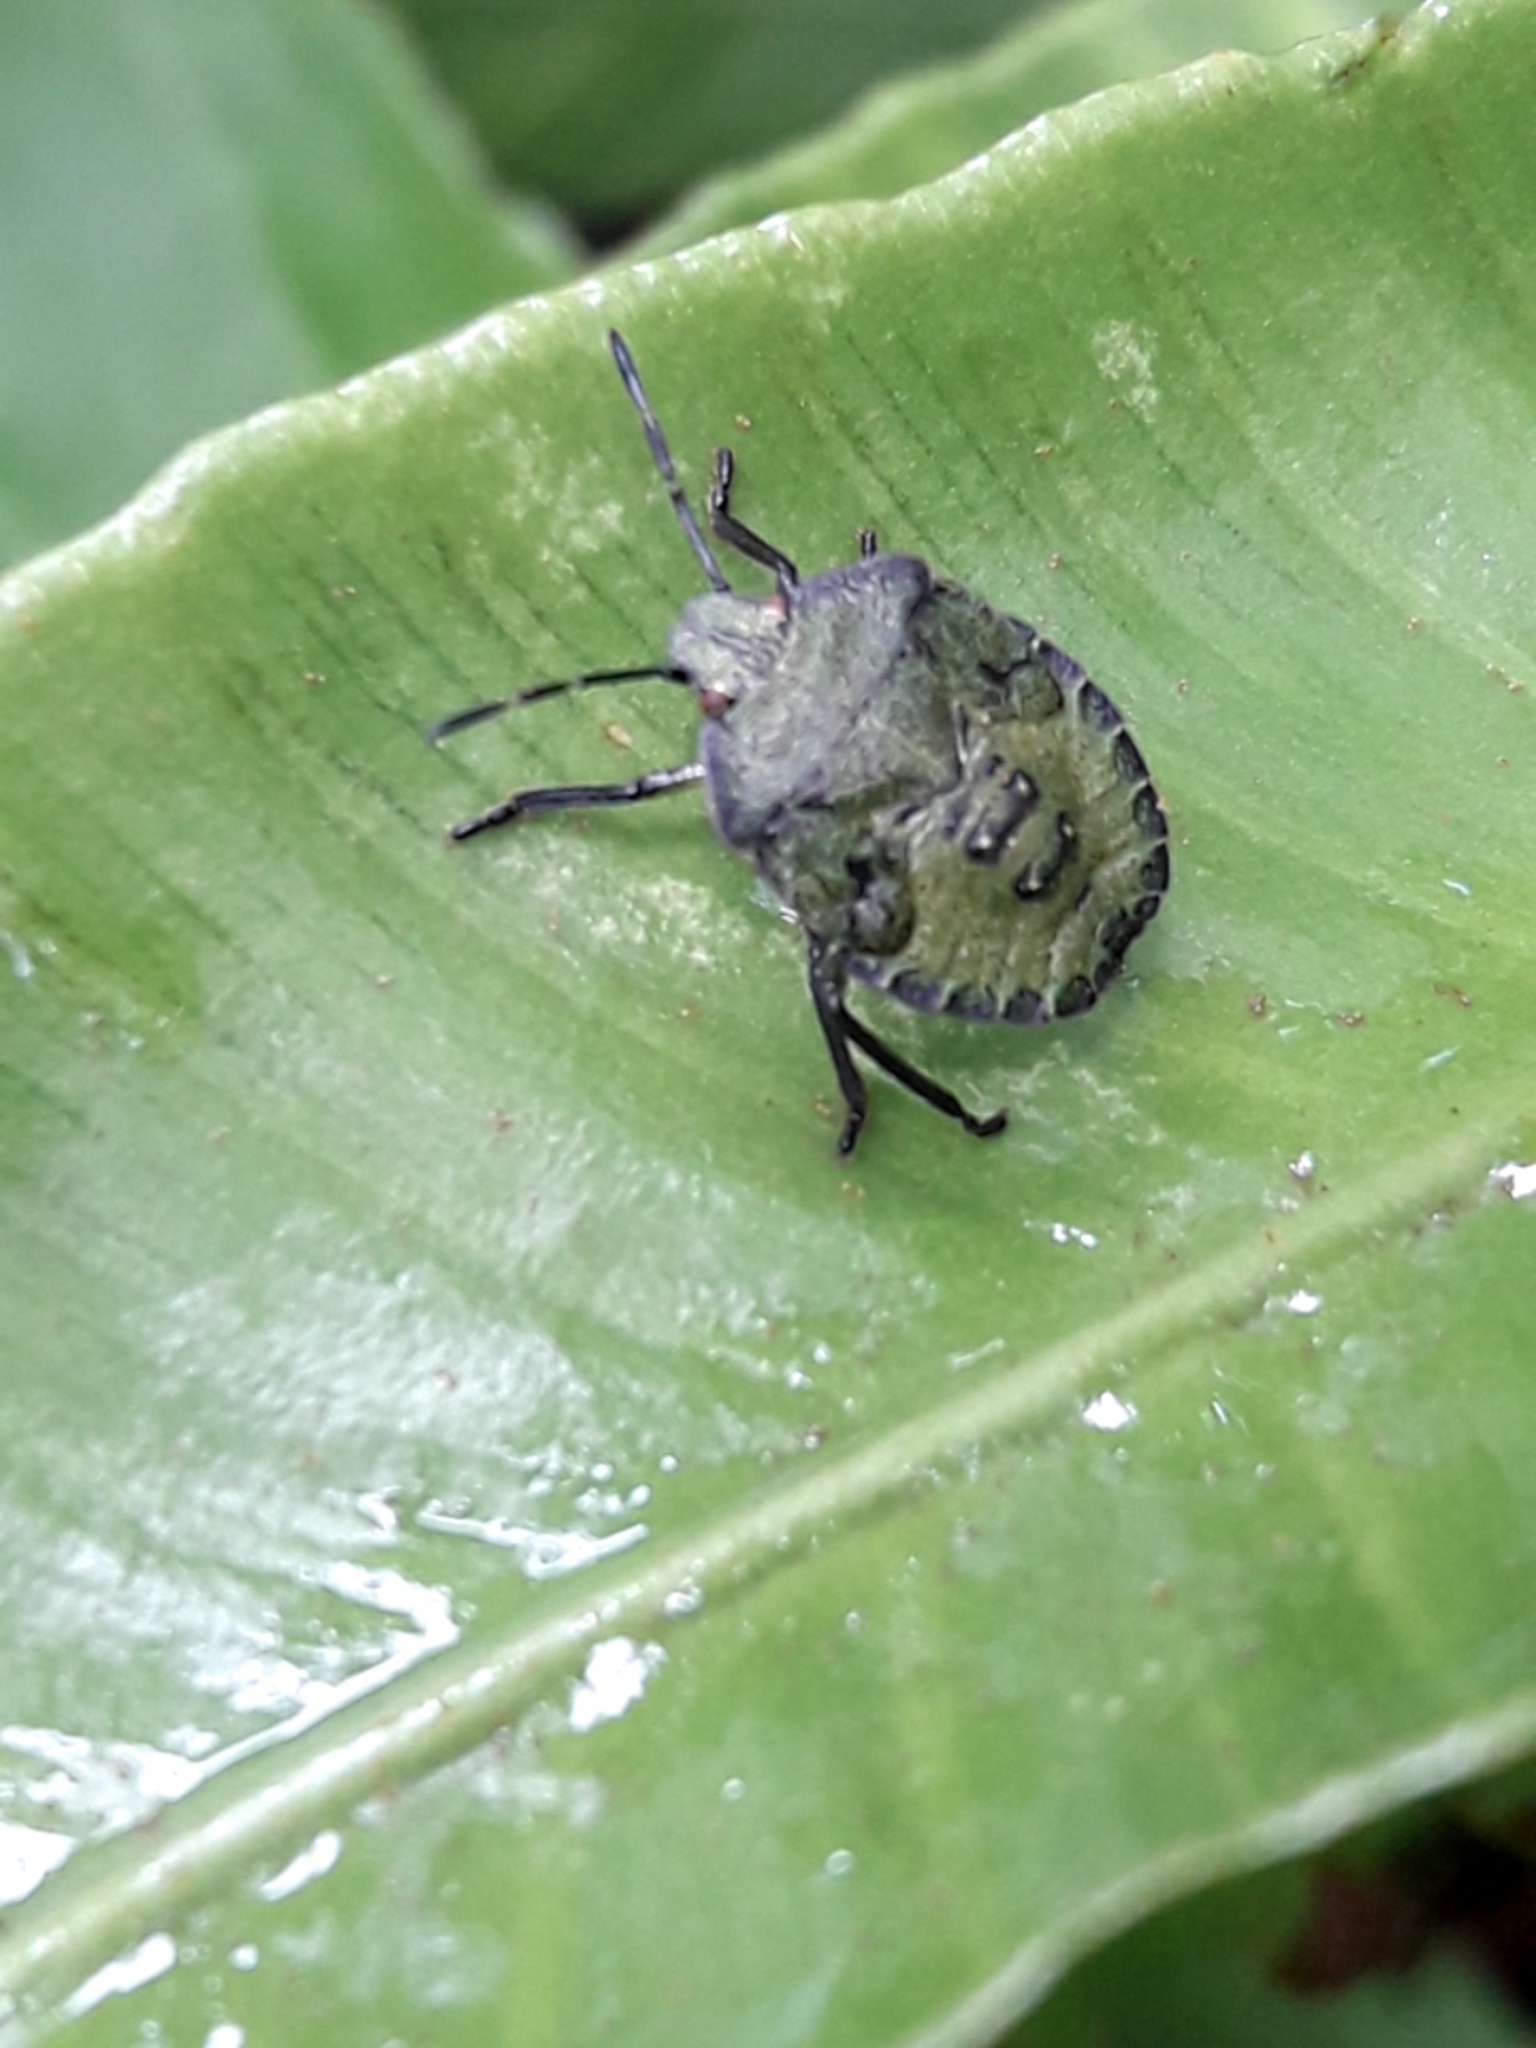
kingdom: Animalia
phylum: Arthropoda
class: Insecta
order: Hemiptera
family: Pentatomidae
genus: Palomena
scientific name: Palomena prasina
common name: Green shieldbug
